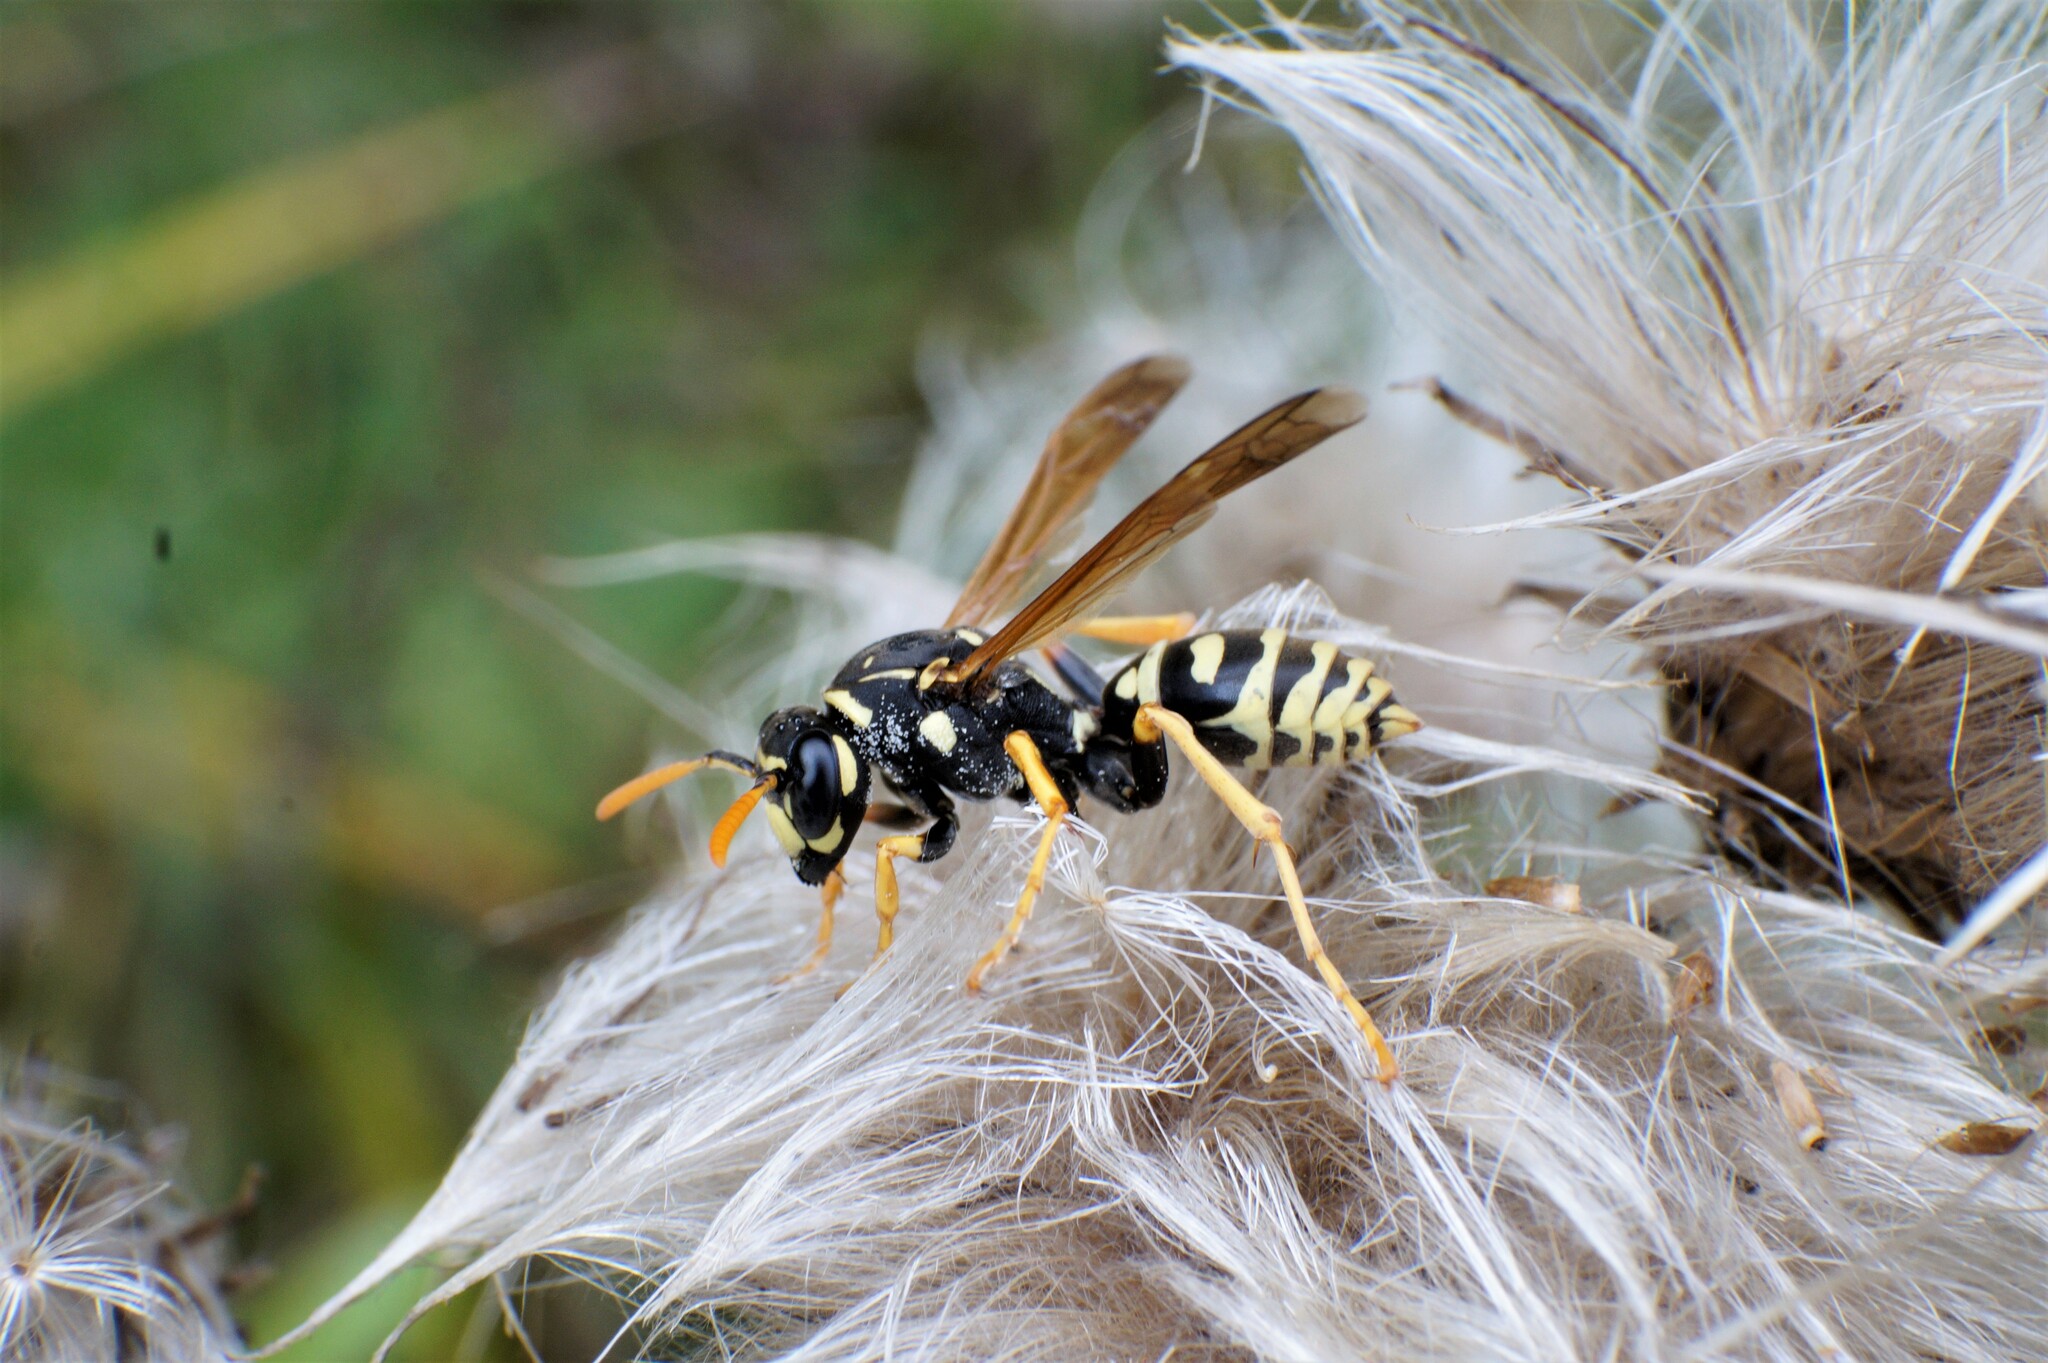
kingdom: Animalia
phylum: Arthropoda
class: Insecta
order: Hymenoptera
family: Eumenidae
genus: Polistes
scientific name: Polistes dominula
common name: Paper wasp
